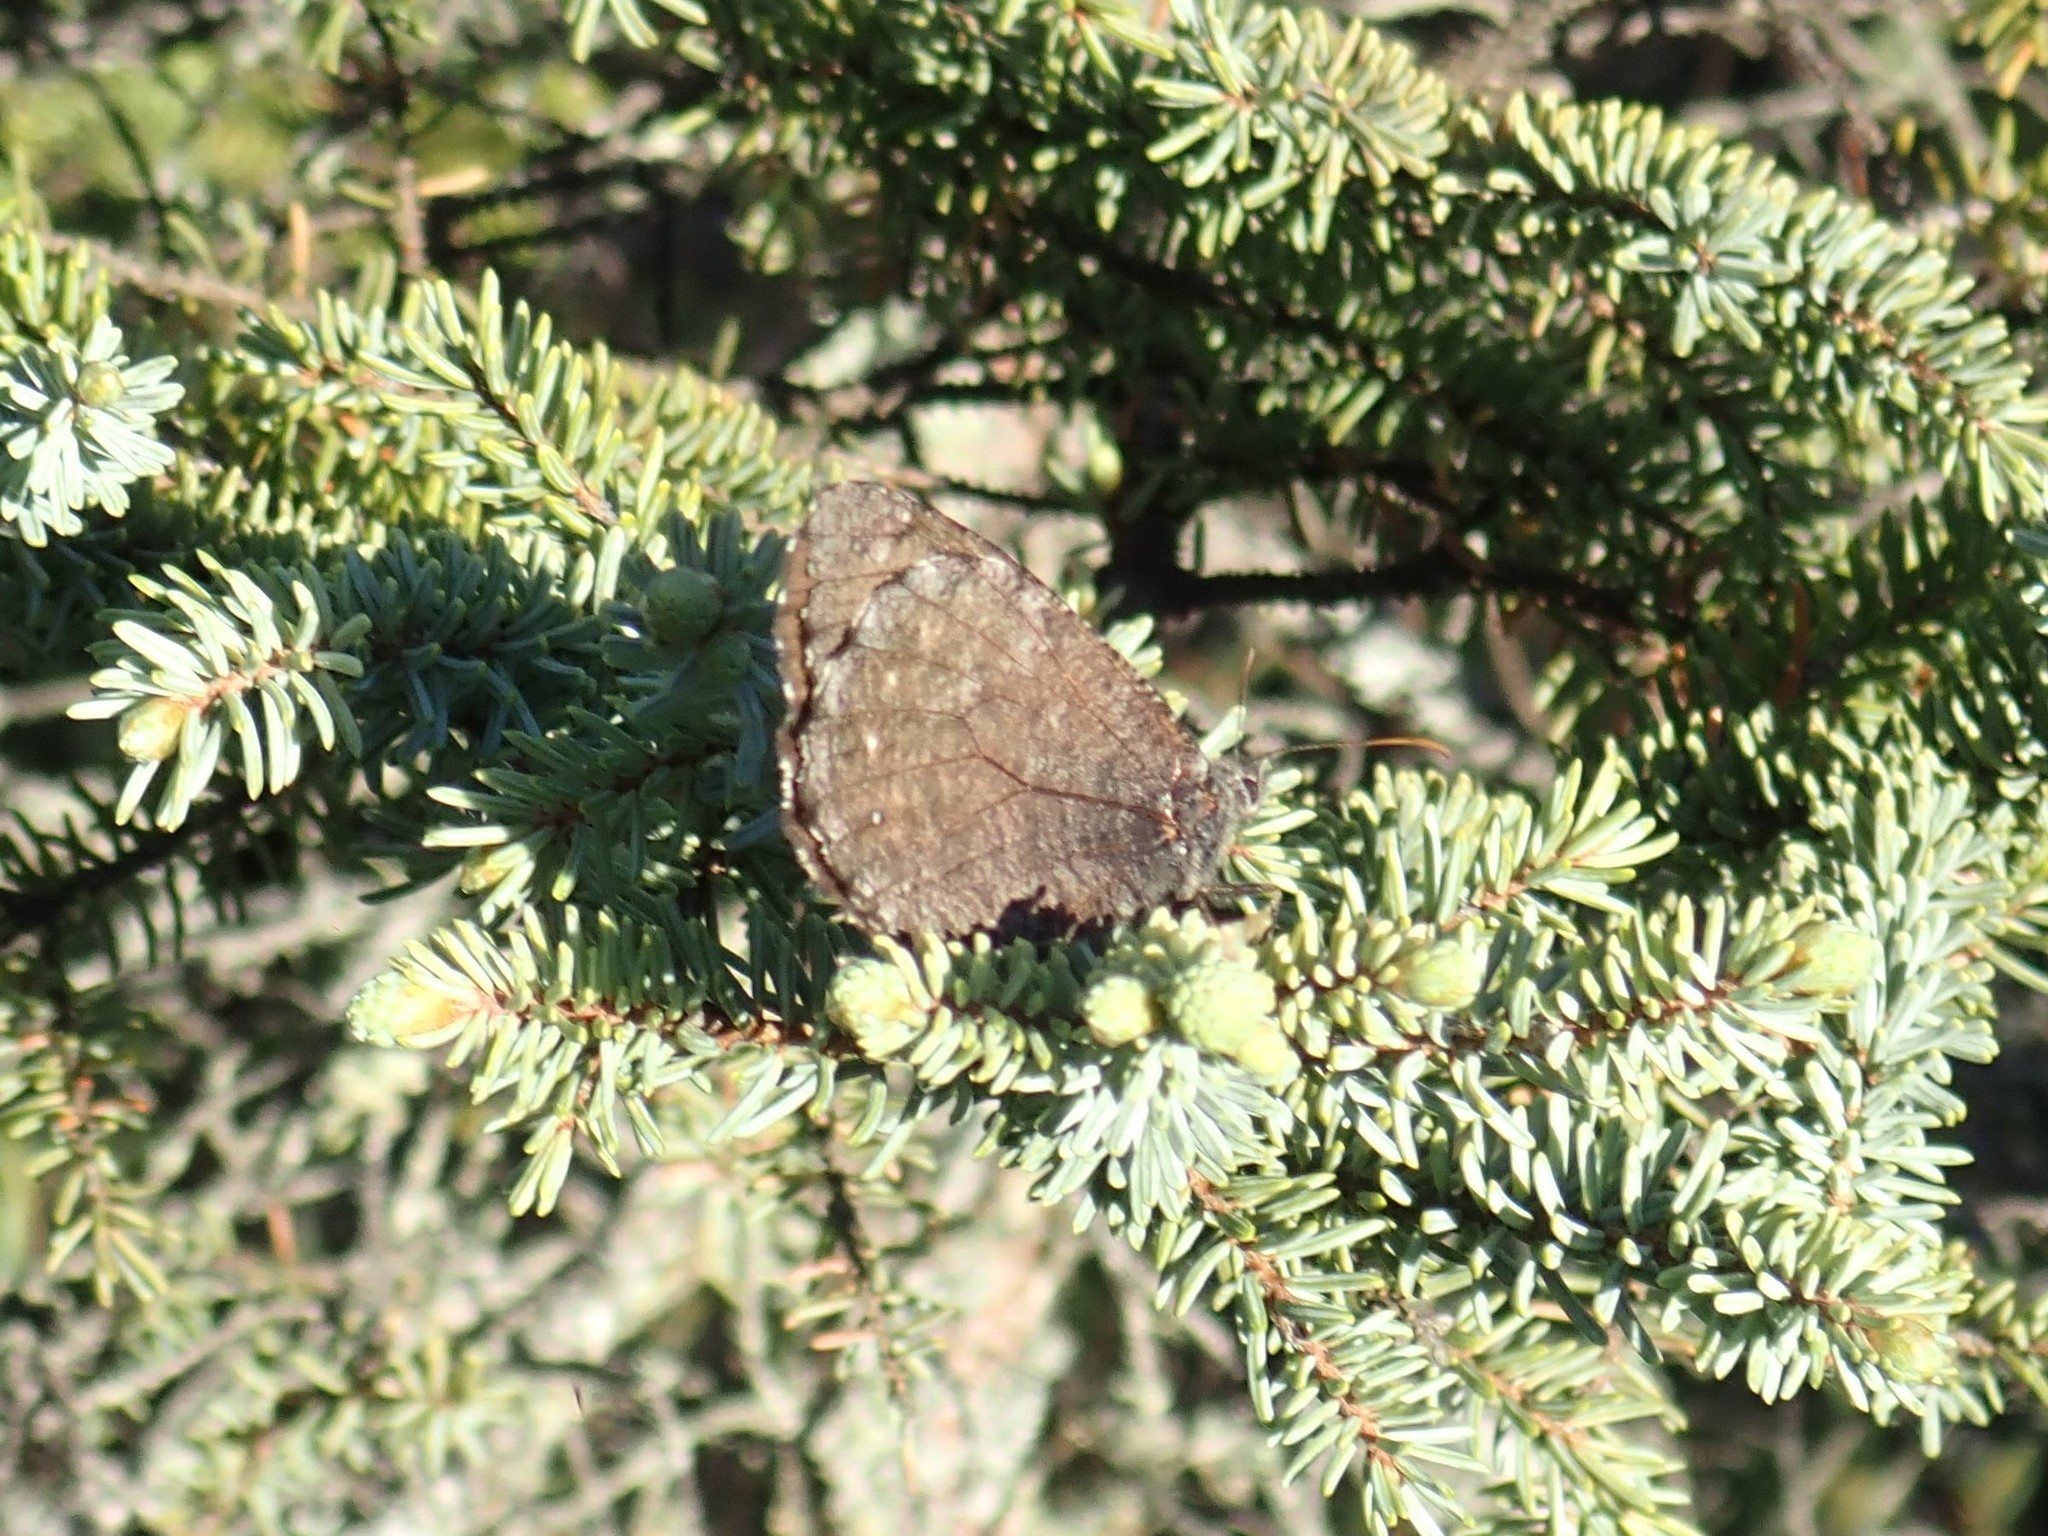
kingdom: Animalia
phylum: Arthropoda
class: Insecta
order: Lepidoptera
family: Nymphalidae
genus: Oeneis
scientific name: Oeneis jutta
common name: Baltic grayling
